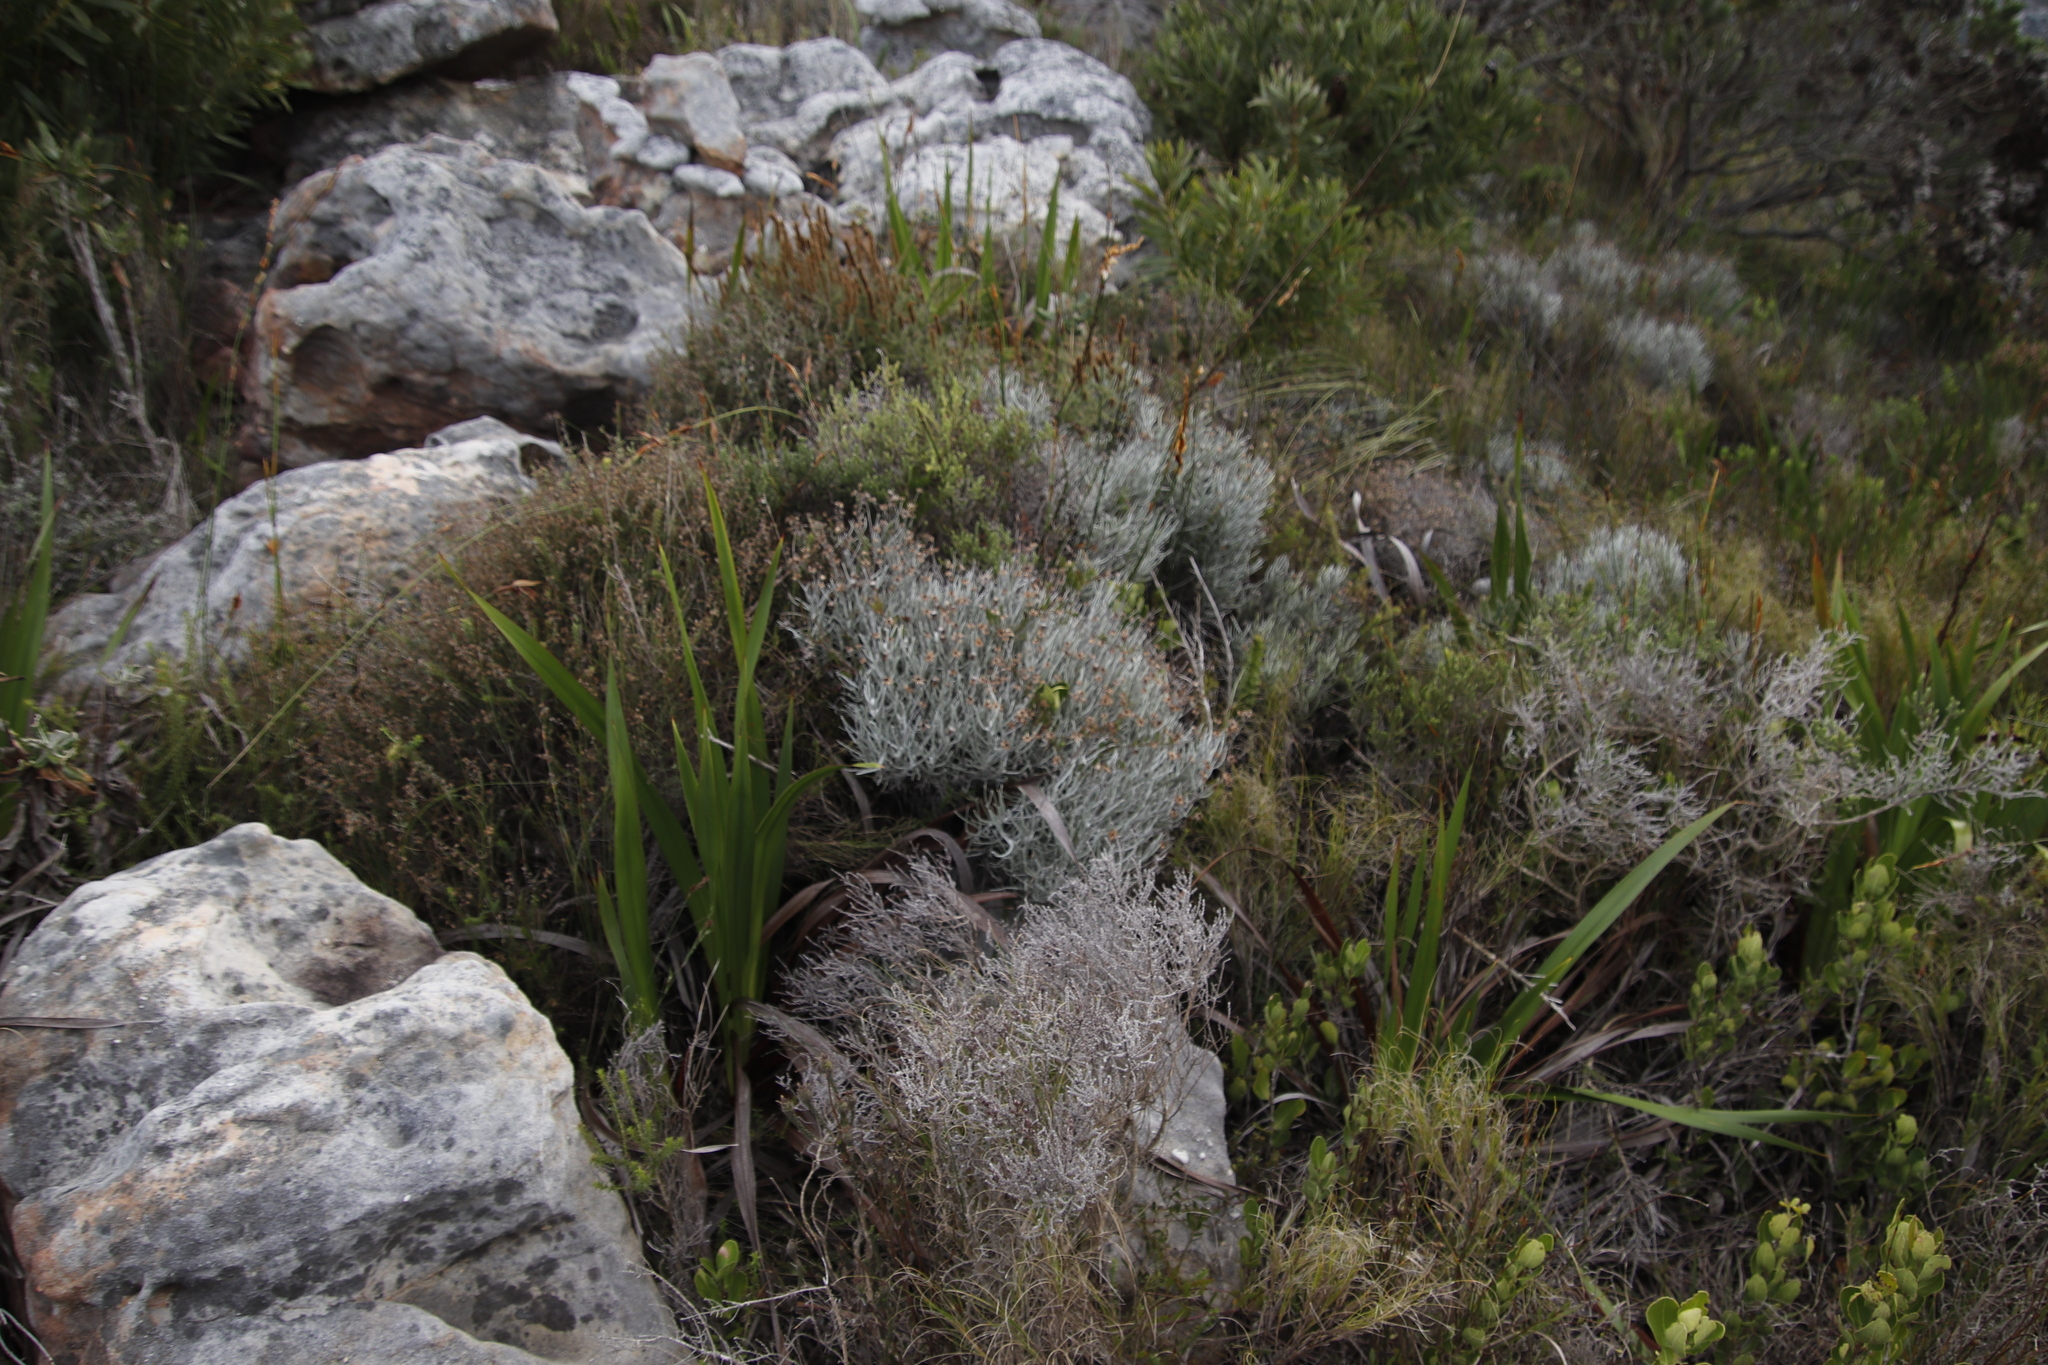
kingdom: Plantae
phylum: Tracheophyta
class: Magnoliopsida
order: Asterales
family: Asteraceae
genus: Syncarpha
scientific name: Syncarpha gnaphaloides
